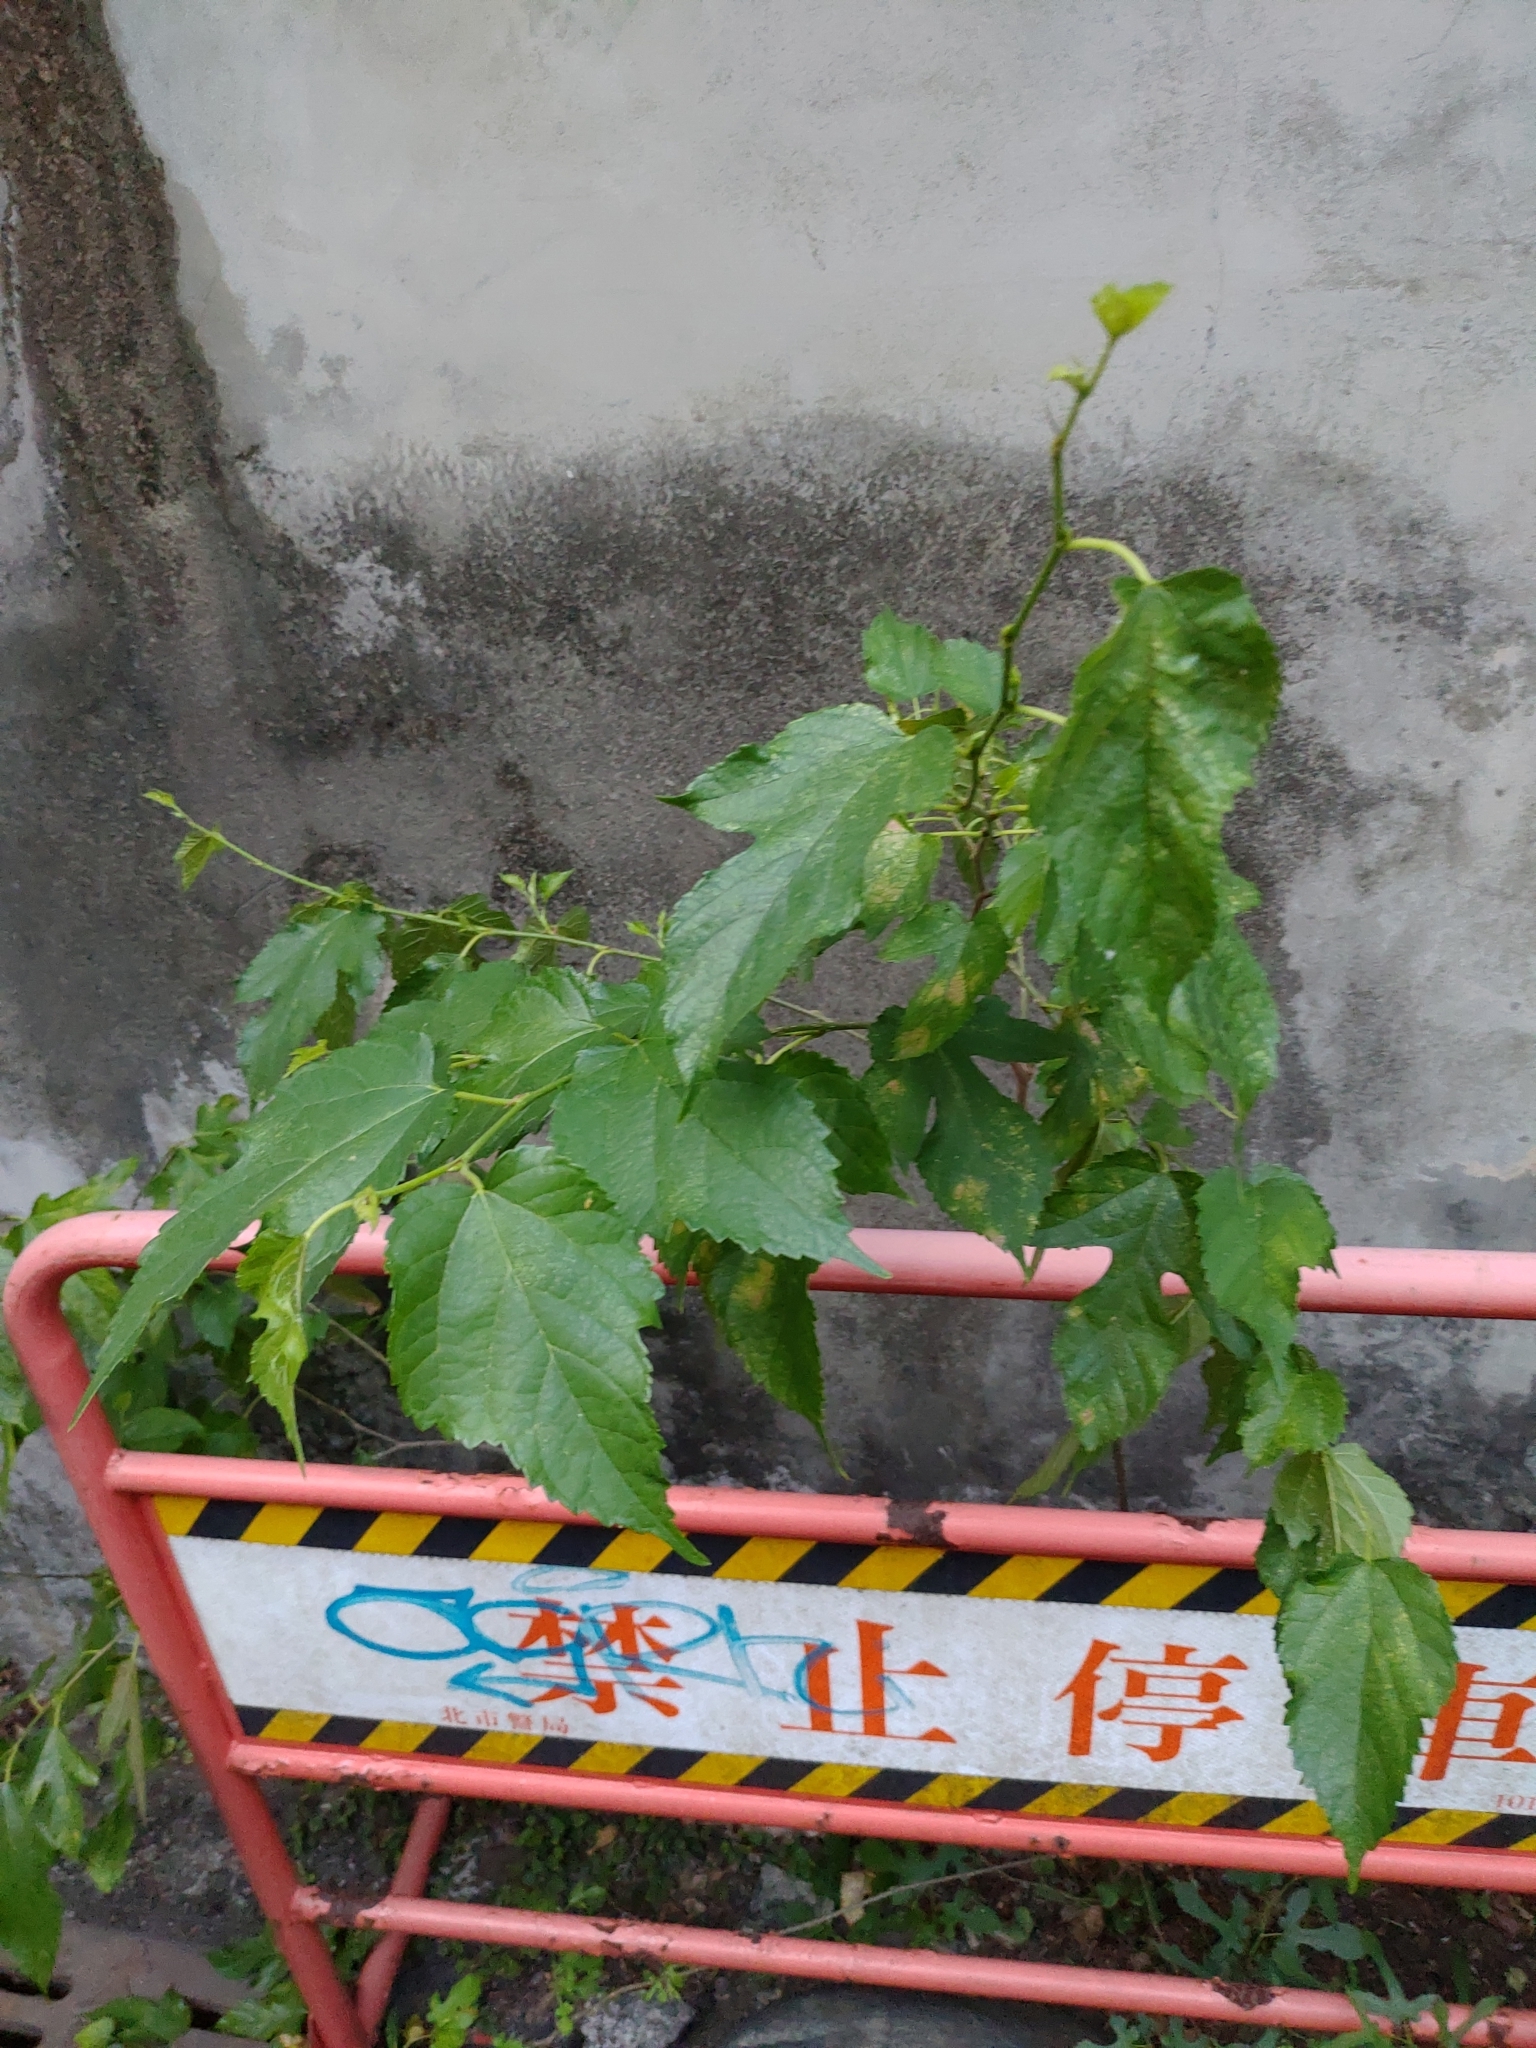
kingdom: Plantae
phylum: Tracheophyta
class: Magnoliopsida
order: Rosales
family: Moraceae
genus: Morus
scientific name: Morus indica
